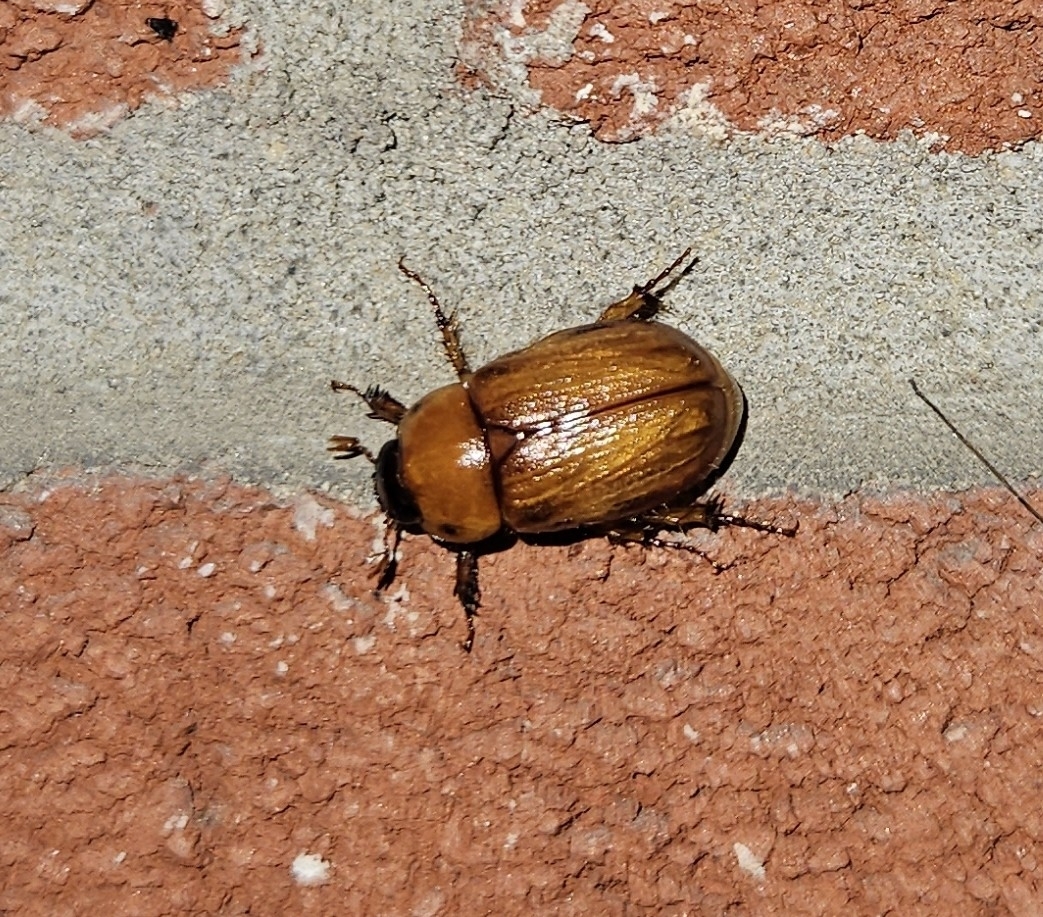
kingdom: Animalia
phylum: Arthropoda
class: Insecta
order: Coleoptera
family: Scarabaeidae
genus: Cyclocephala
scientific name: Cyclocephala lurida
